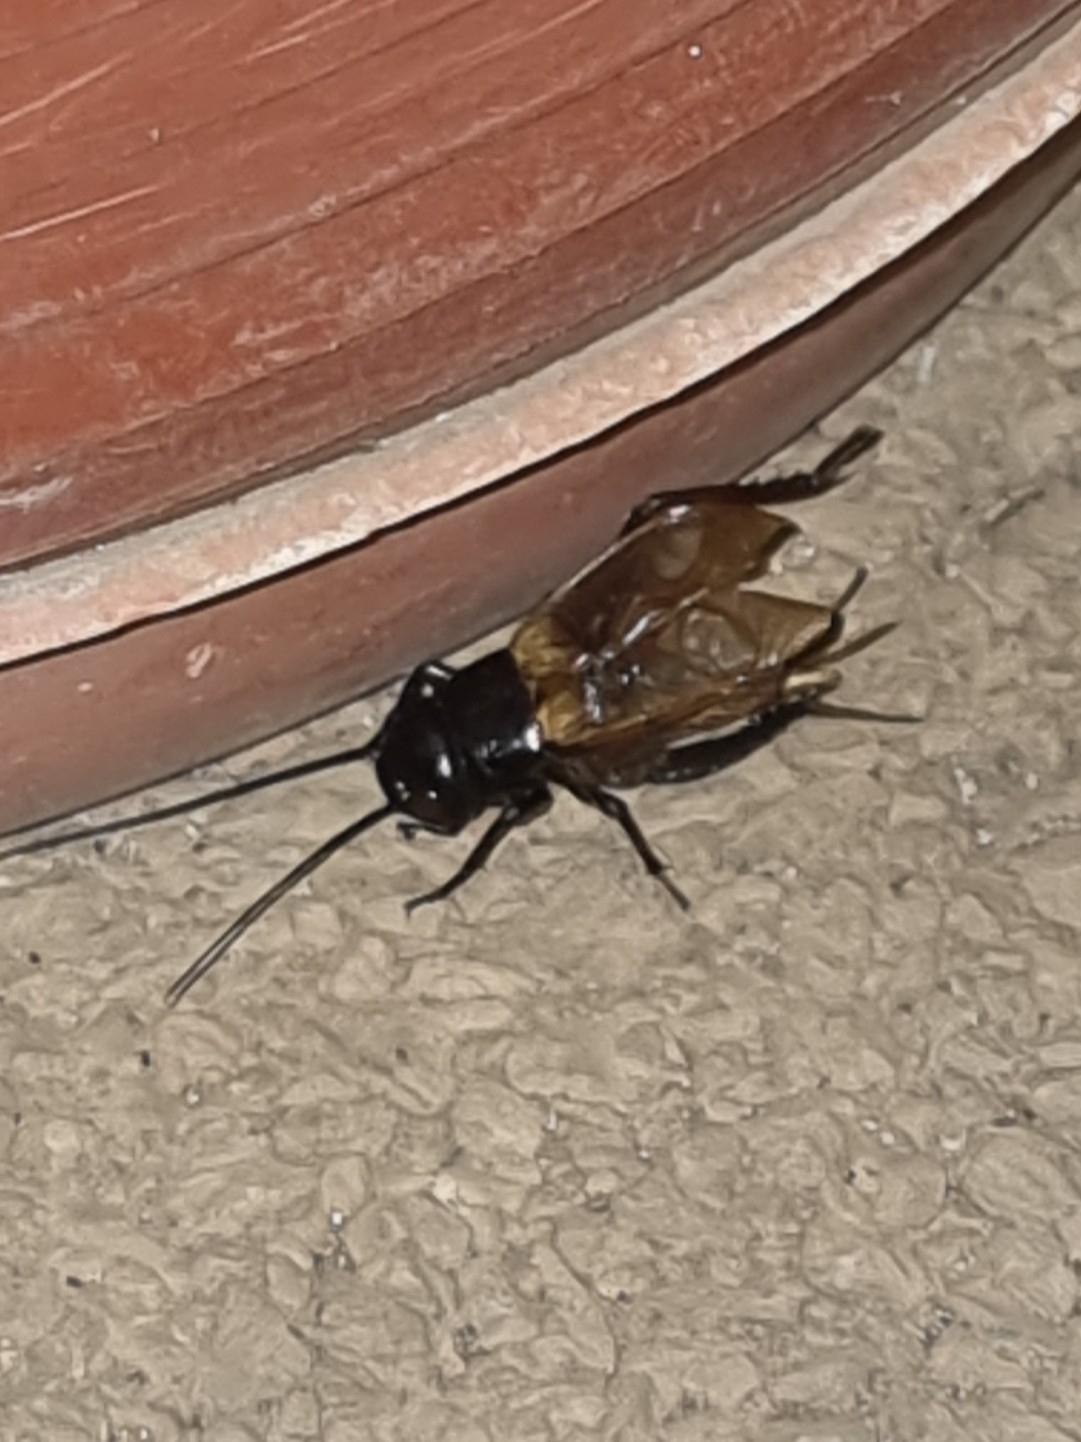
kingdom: Animalia
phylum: Arthropoda
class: Insecta
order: Orthoptera
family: Gryllidae
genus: Gryllus
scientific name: Gryllus bimaculatus
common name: Two-spotted cricket
